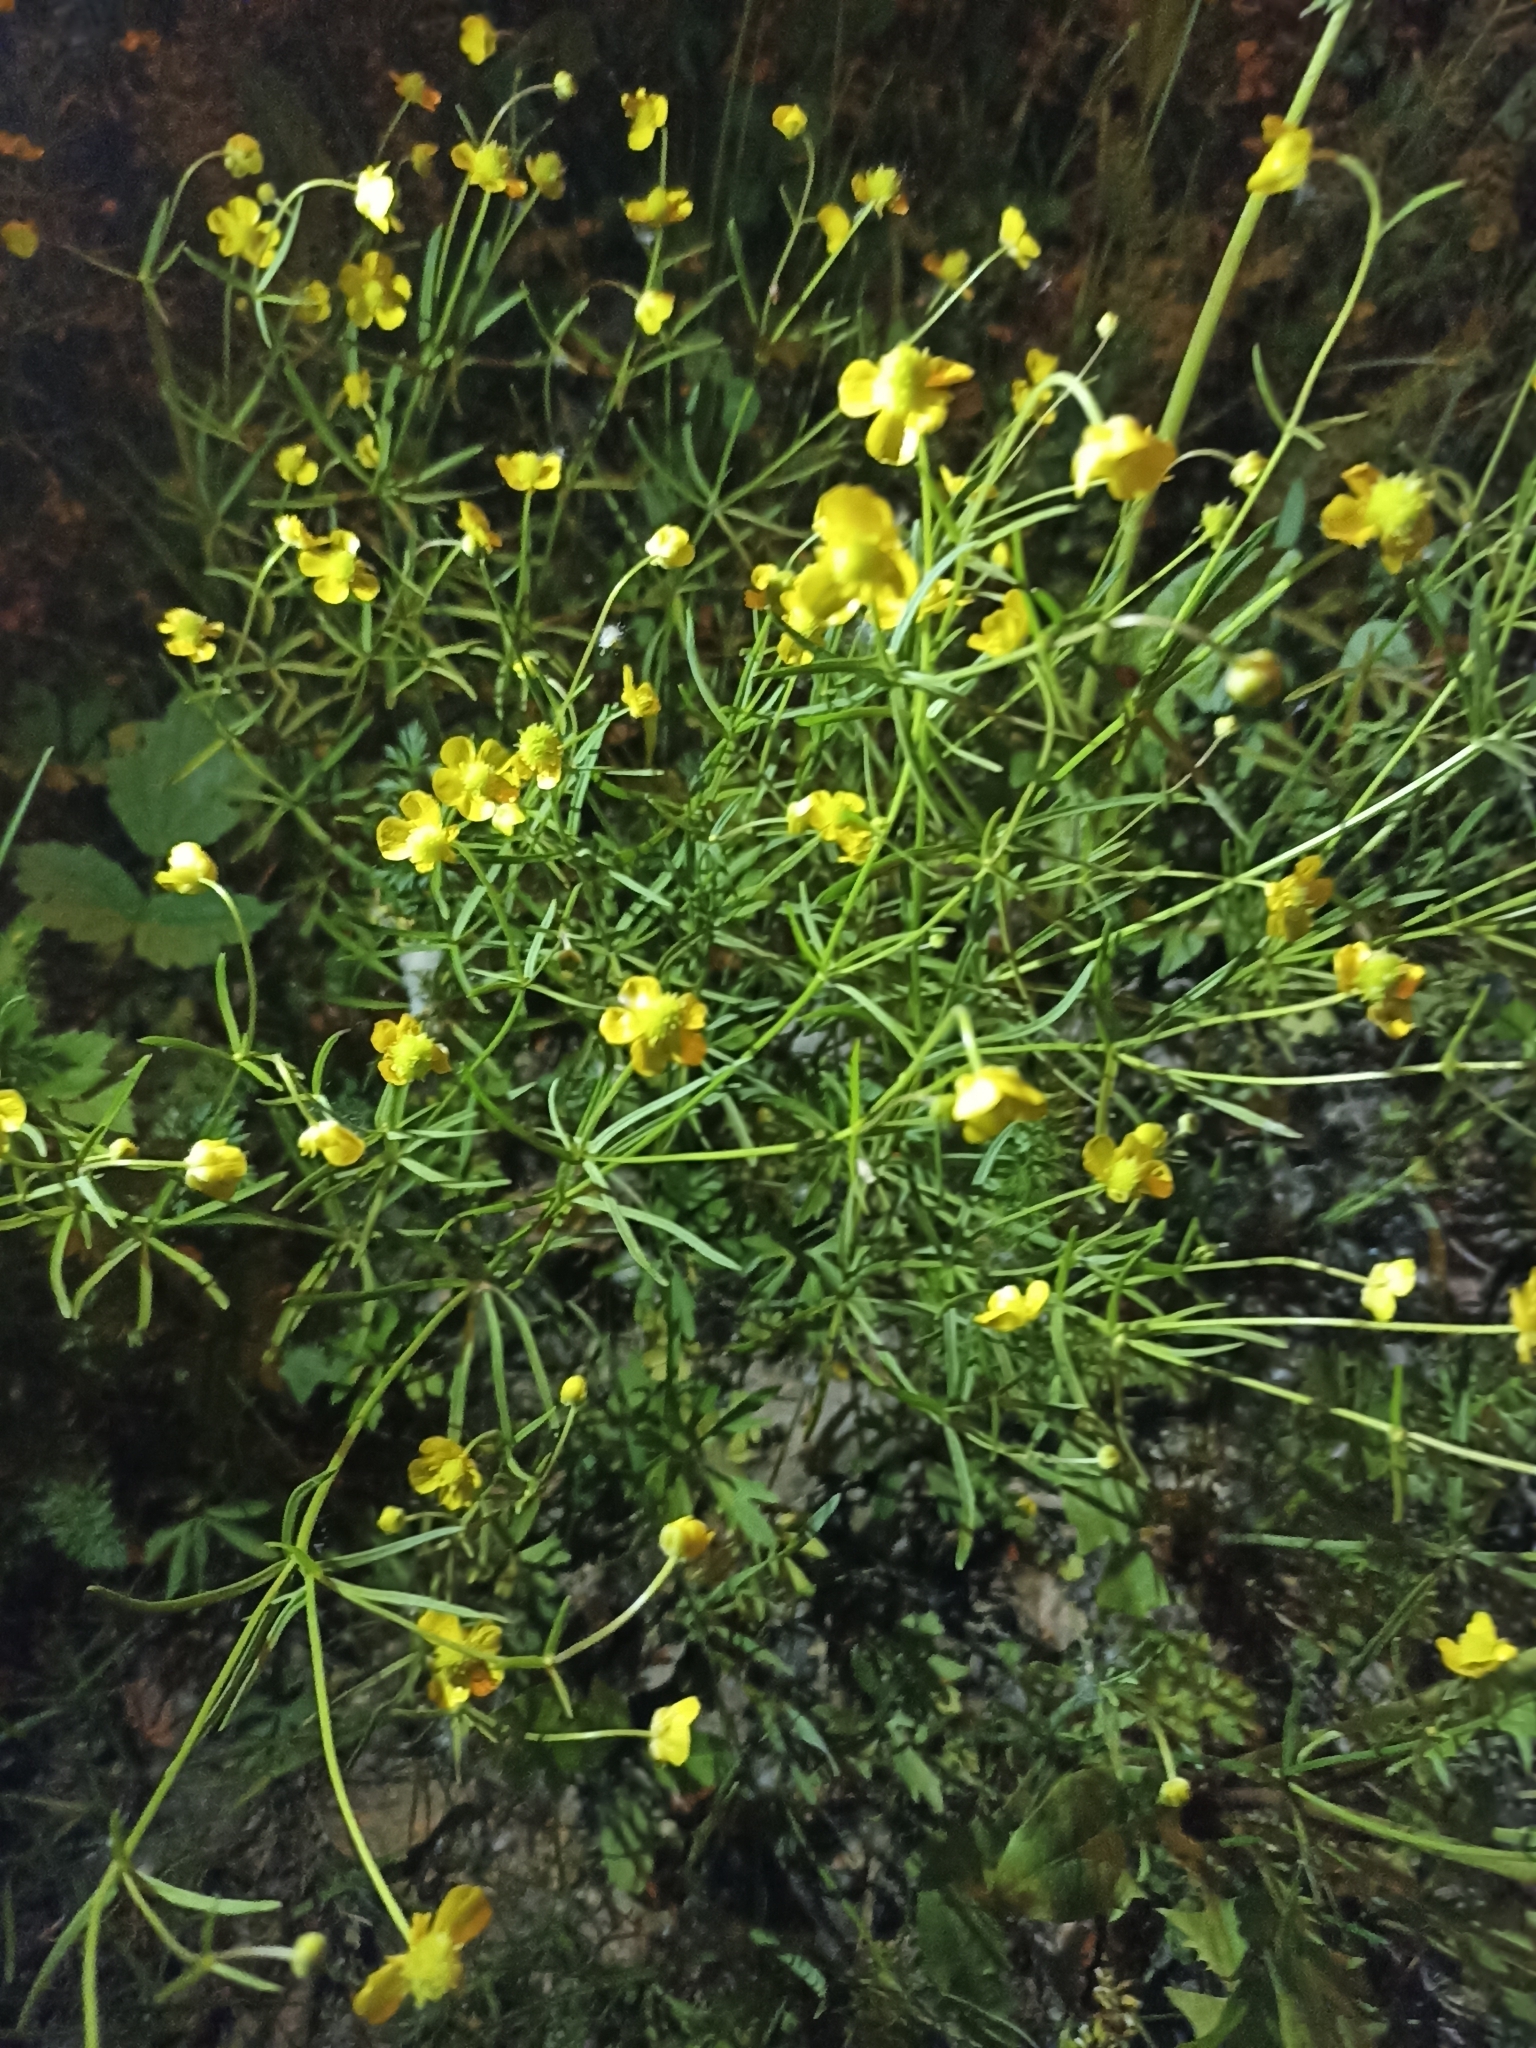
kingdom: Plantae
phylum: Tracheophyta
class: Magnoliopsida
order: Ranunculales
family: Ranunculaceae
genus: Ranunculus
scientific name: Ranunculus auricomus
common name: Goldilocks buttercup
